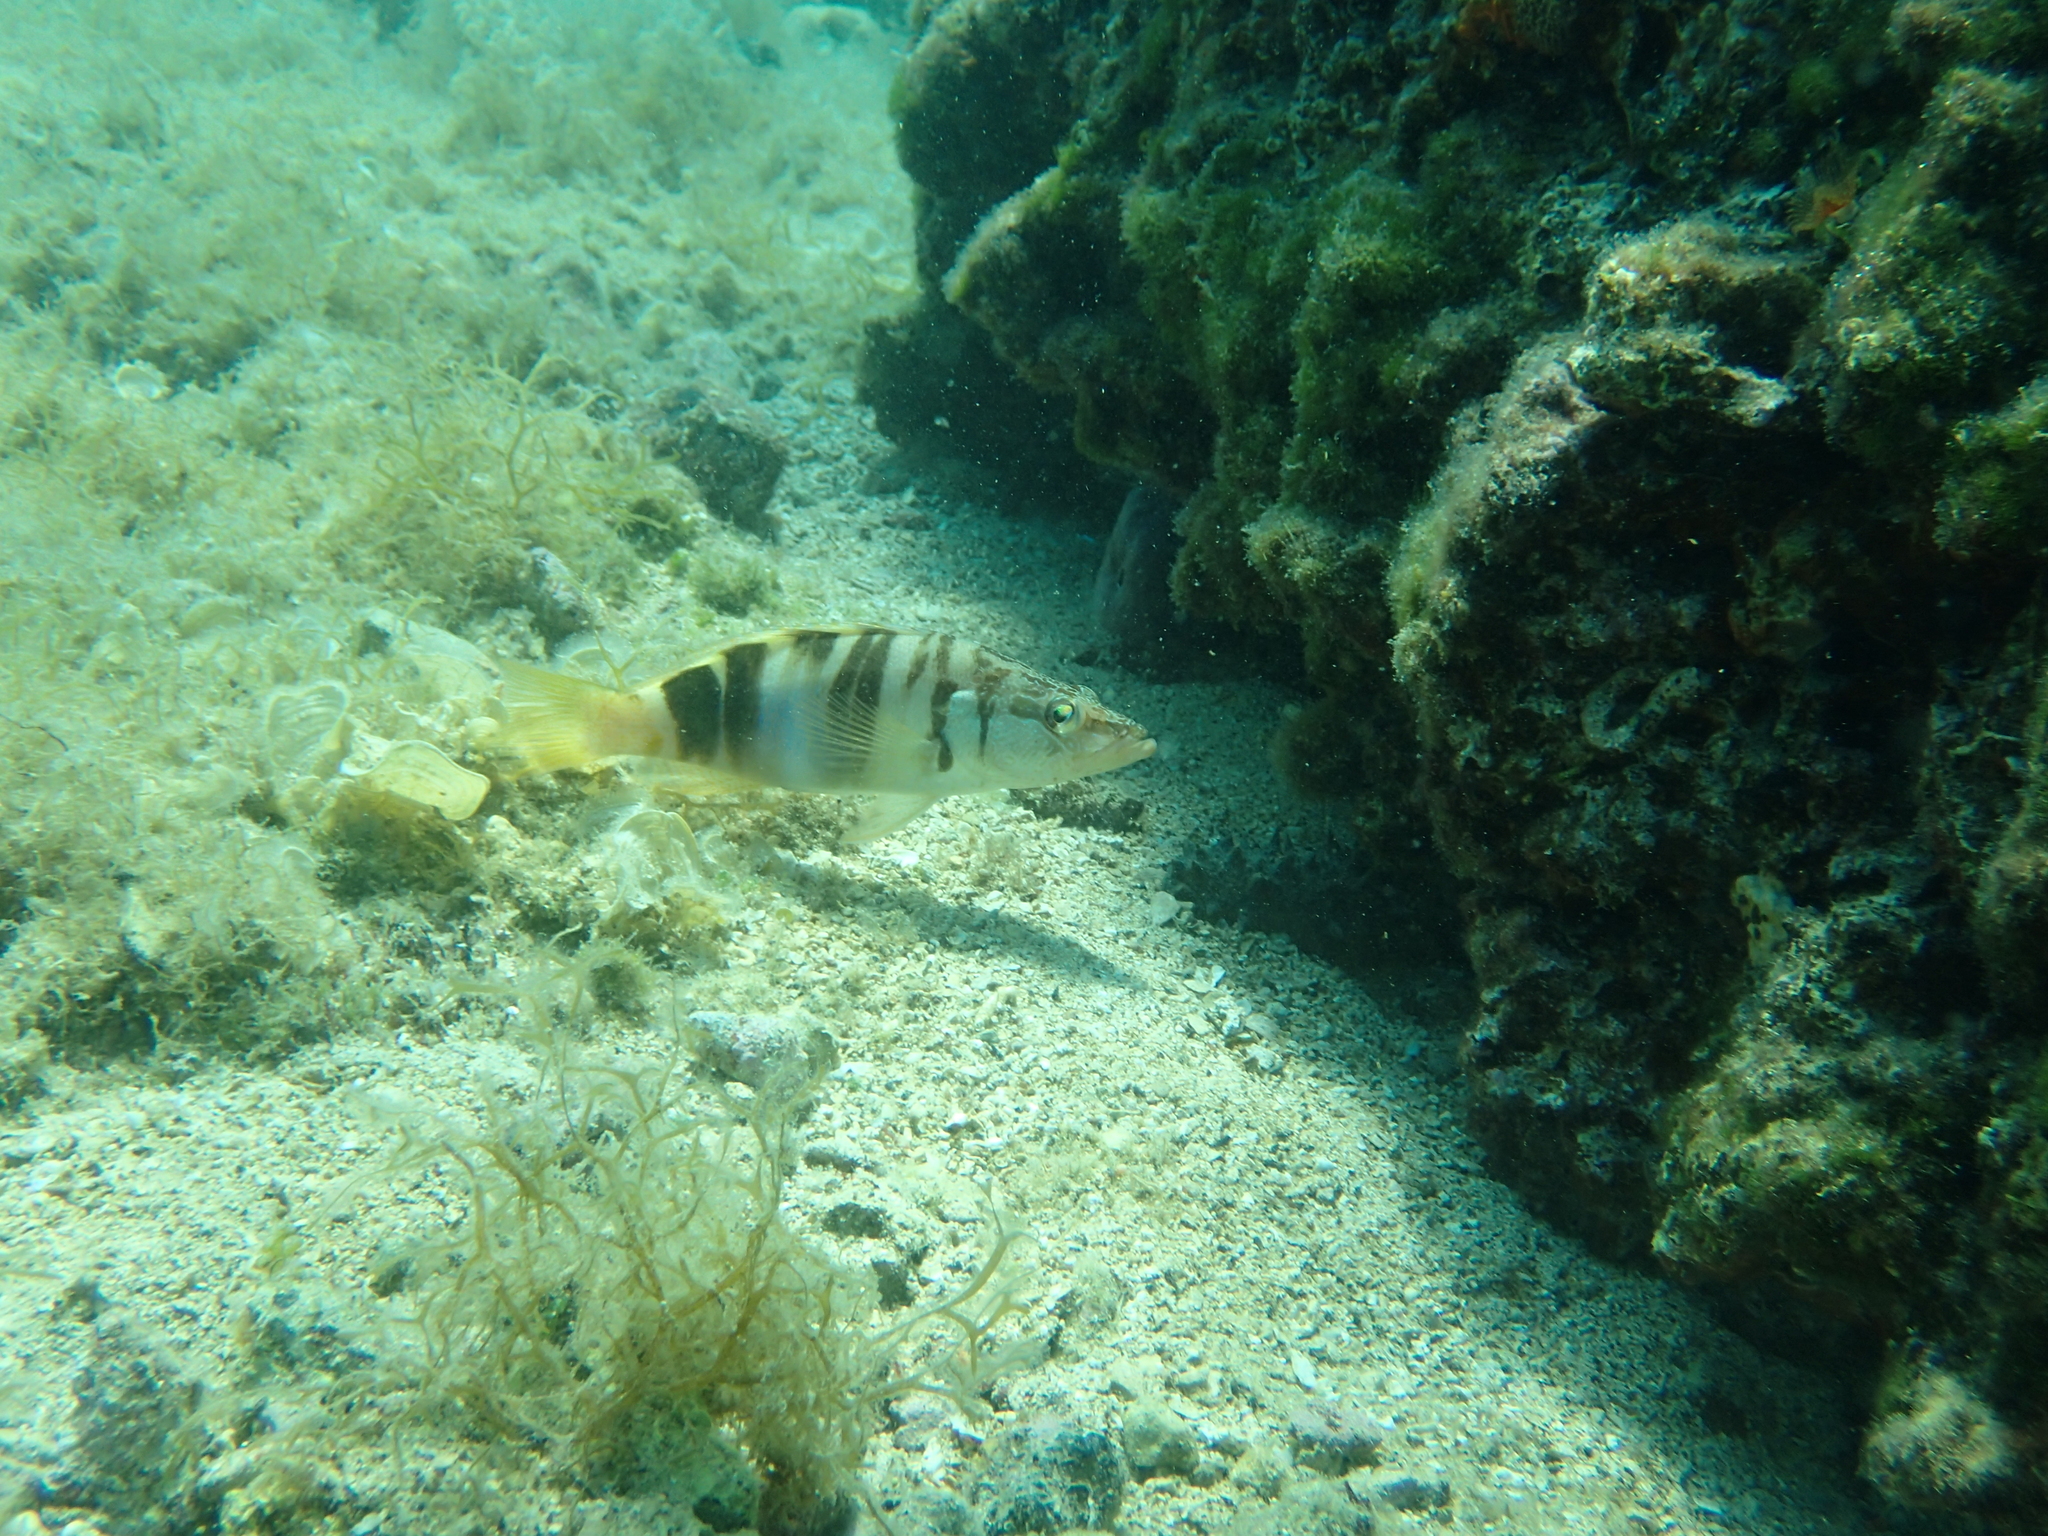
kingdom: Animalia
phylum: Chordata
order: Perciformes
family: Serranidae
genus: Serranus
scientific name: Serranus scriba
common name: Painted comber
